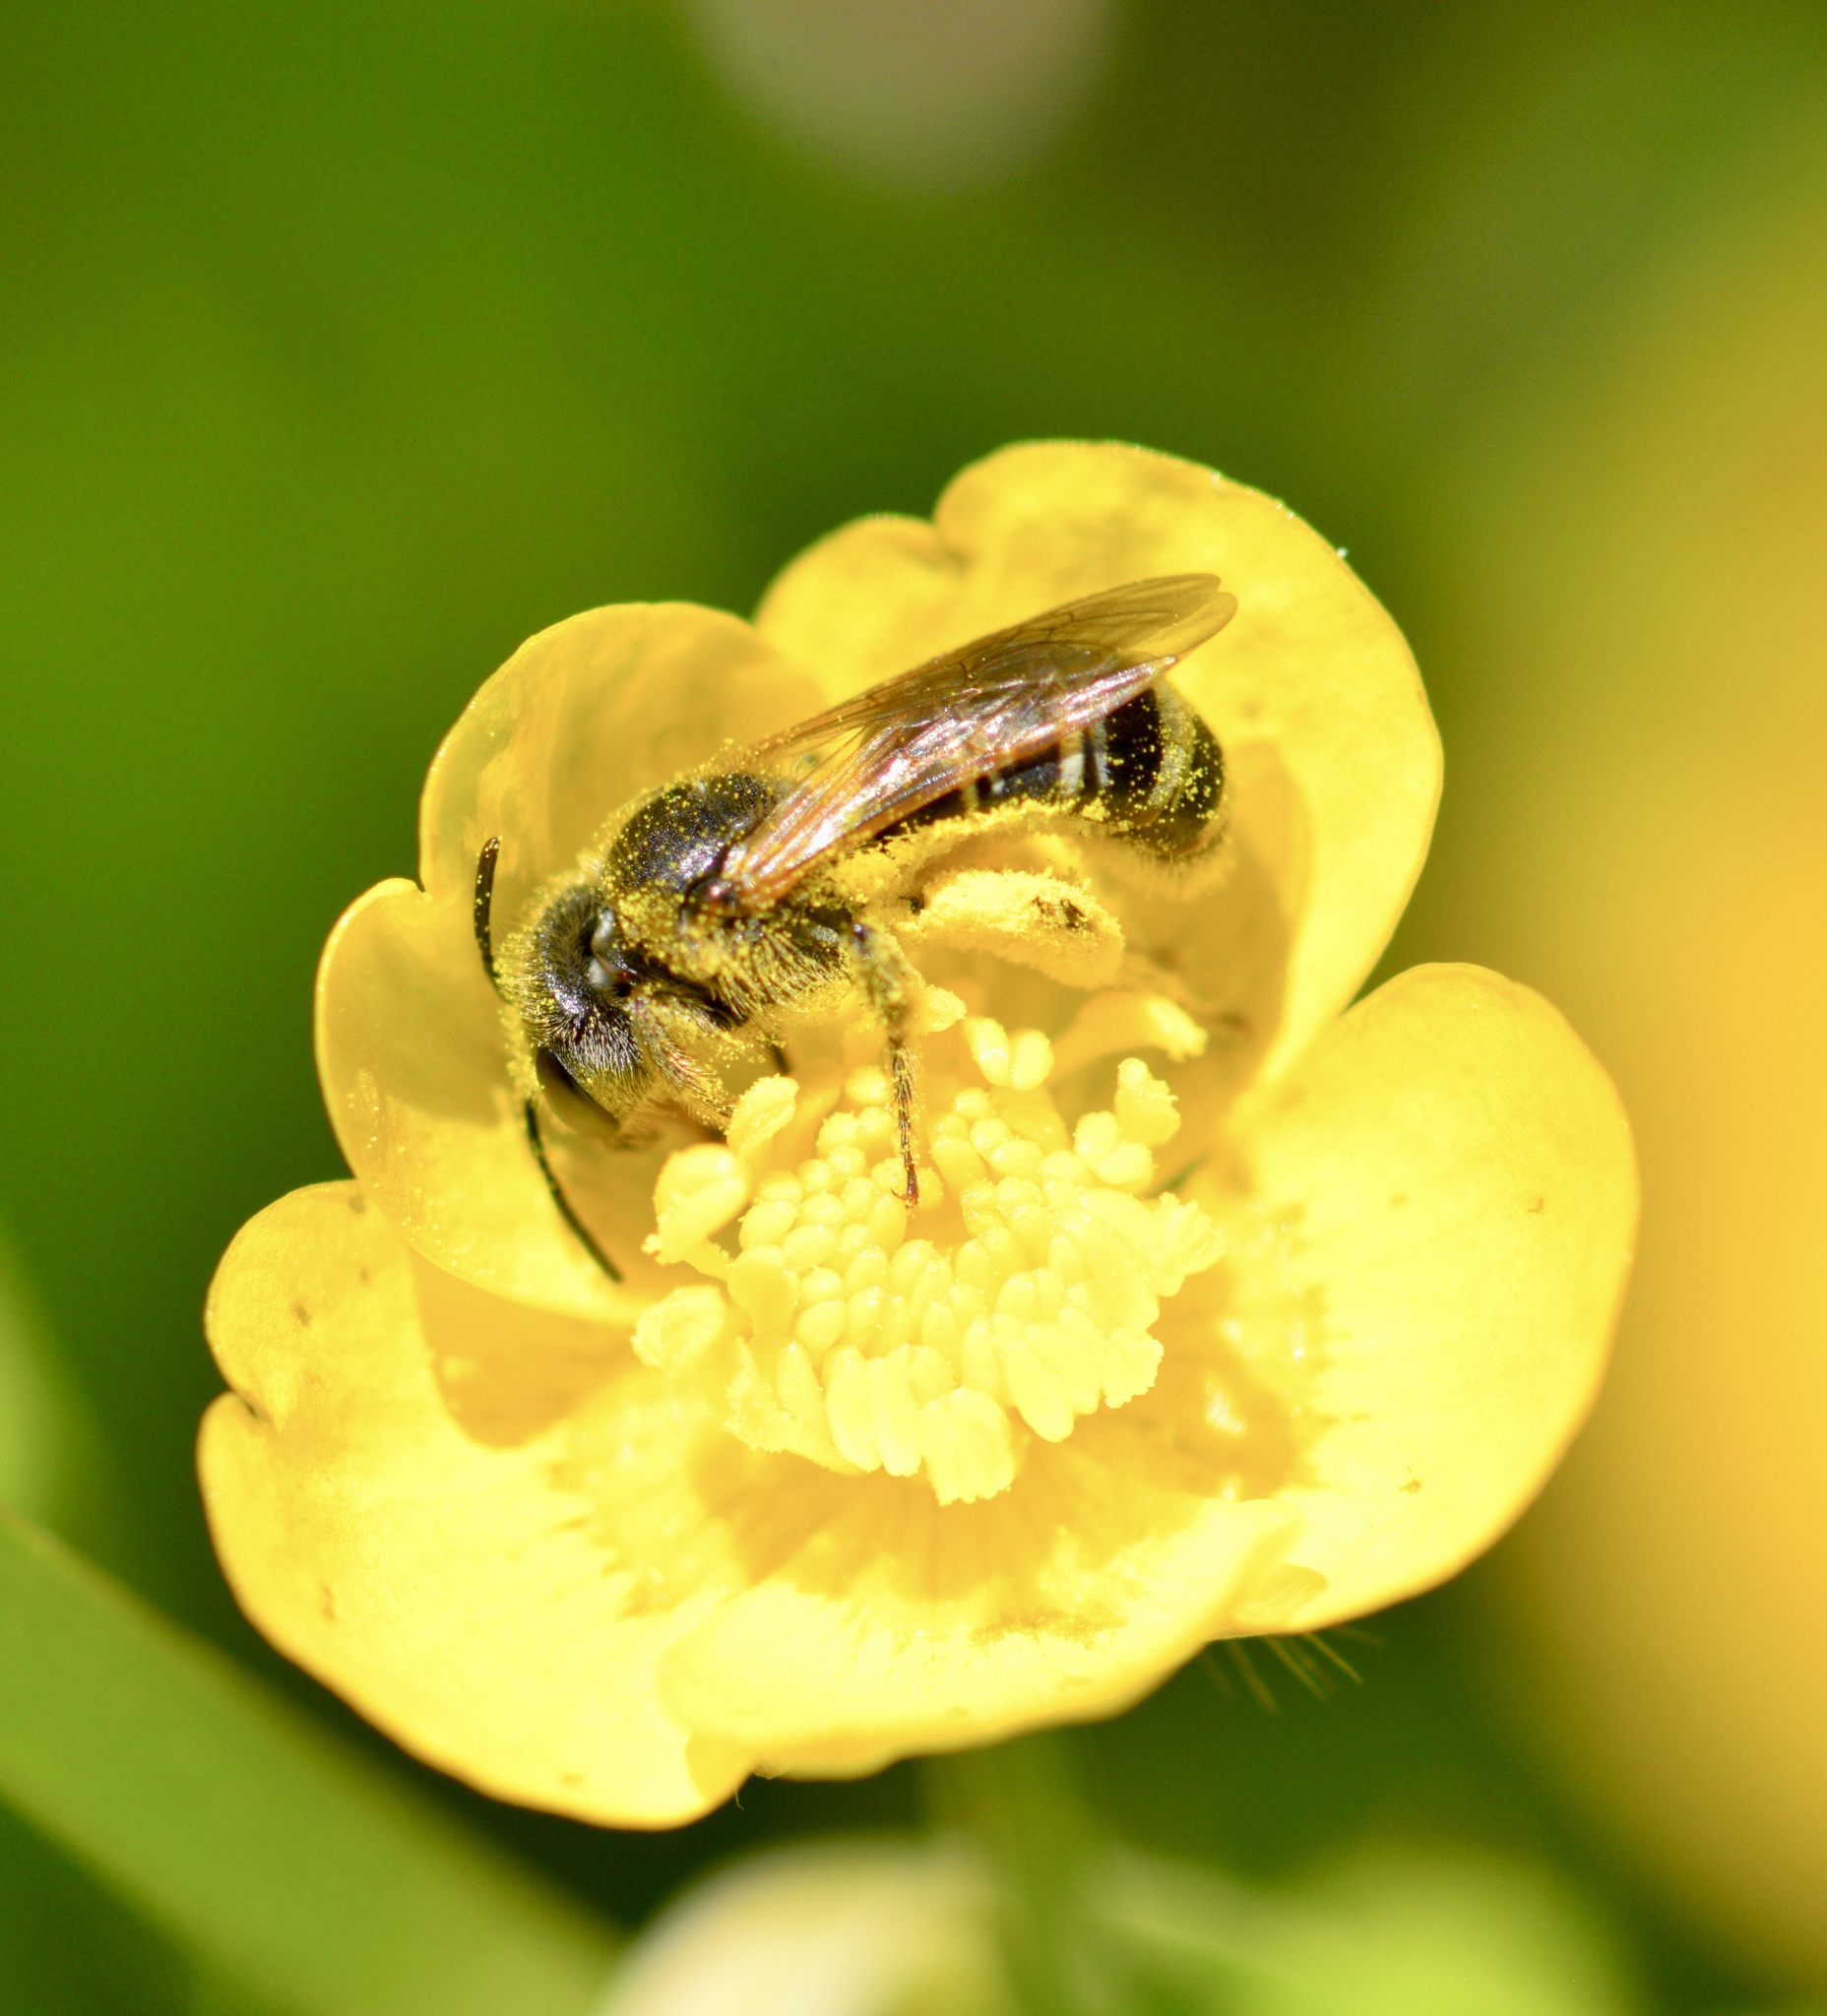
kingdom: Animalia
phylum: Arthropoda
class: Insecta
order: Hymenoptera
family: Halictidae
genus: Halictus
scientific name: Halictus ligatus
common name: Ligated furrow bee
